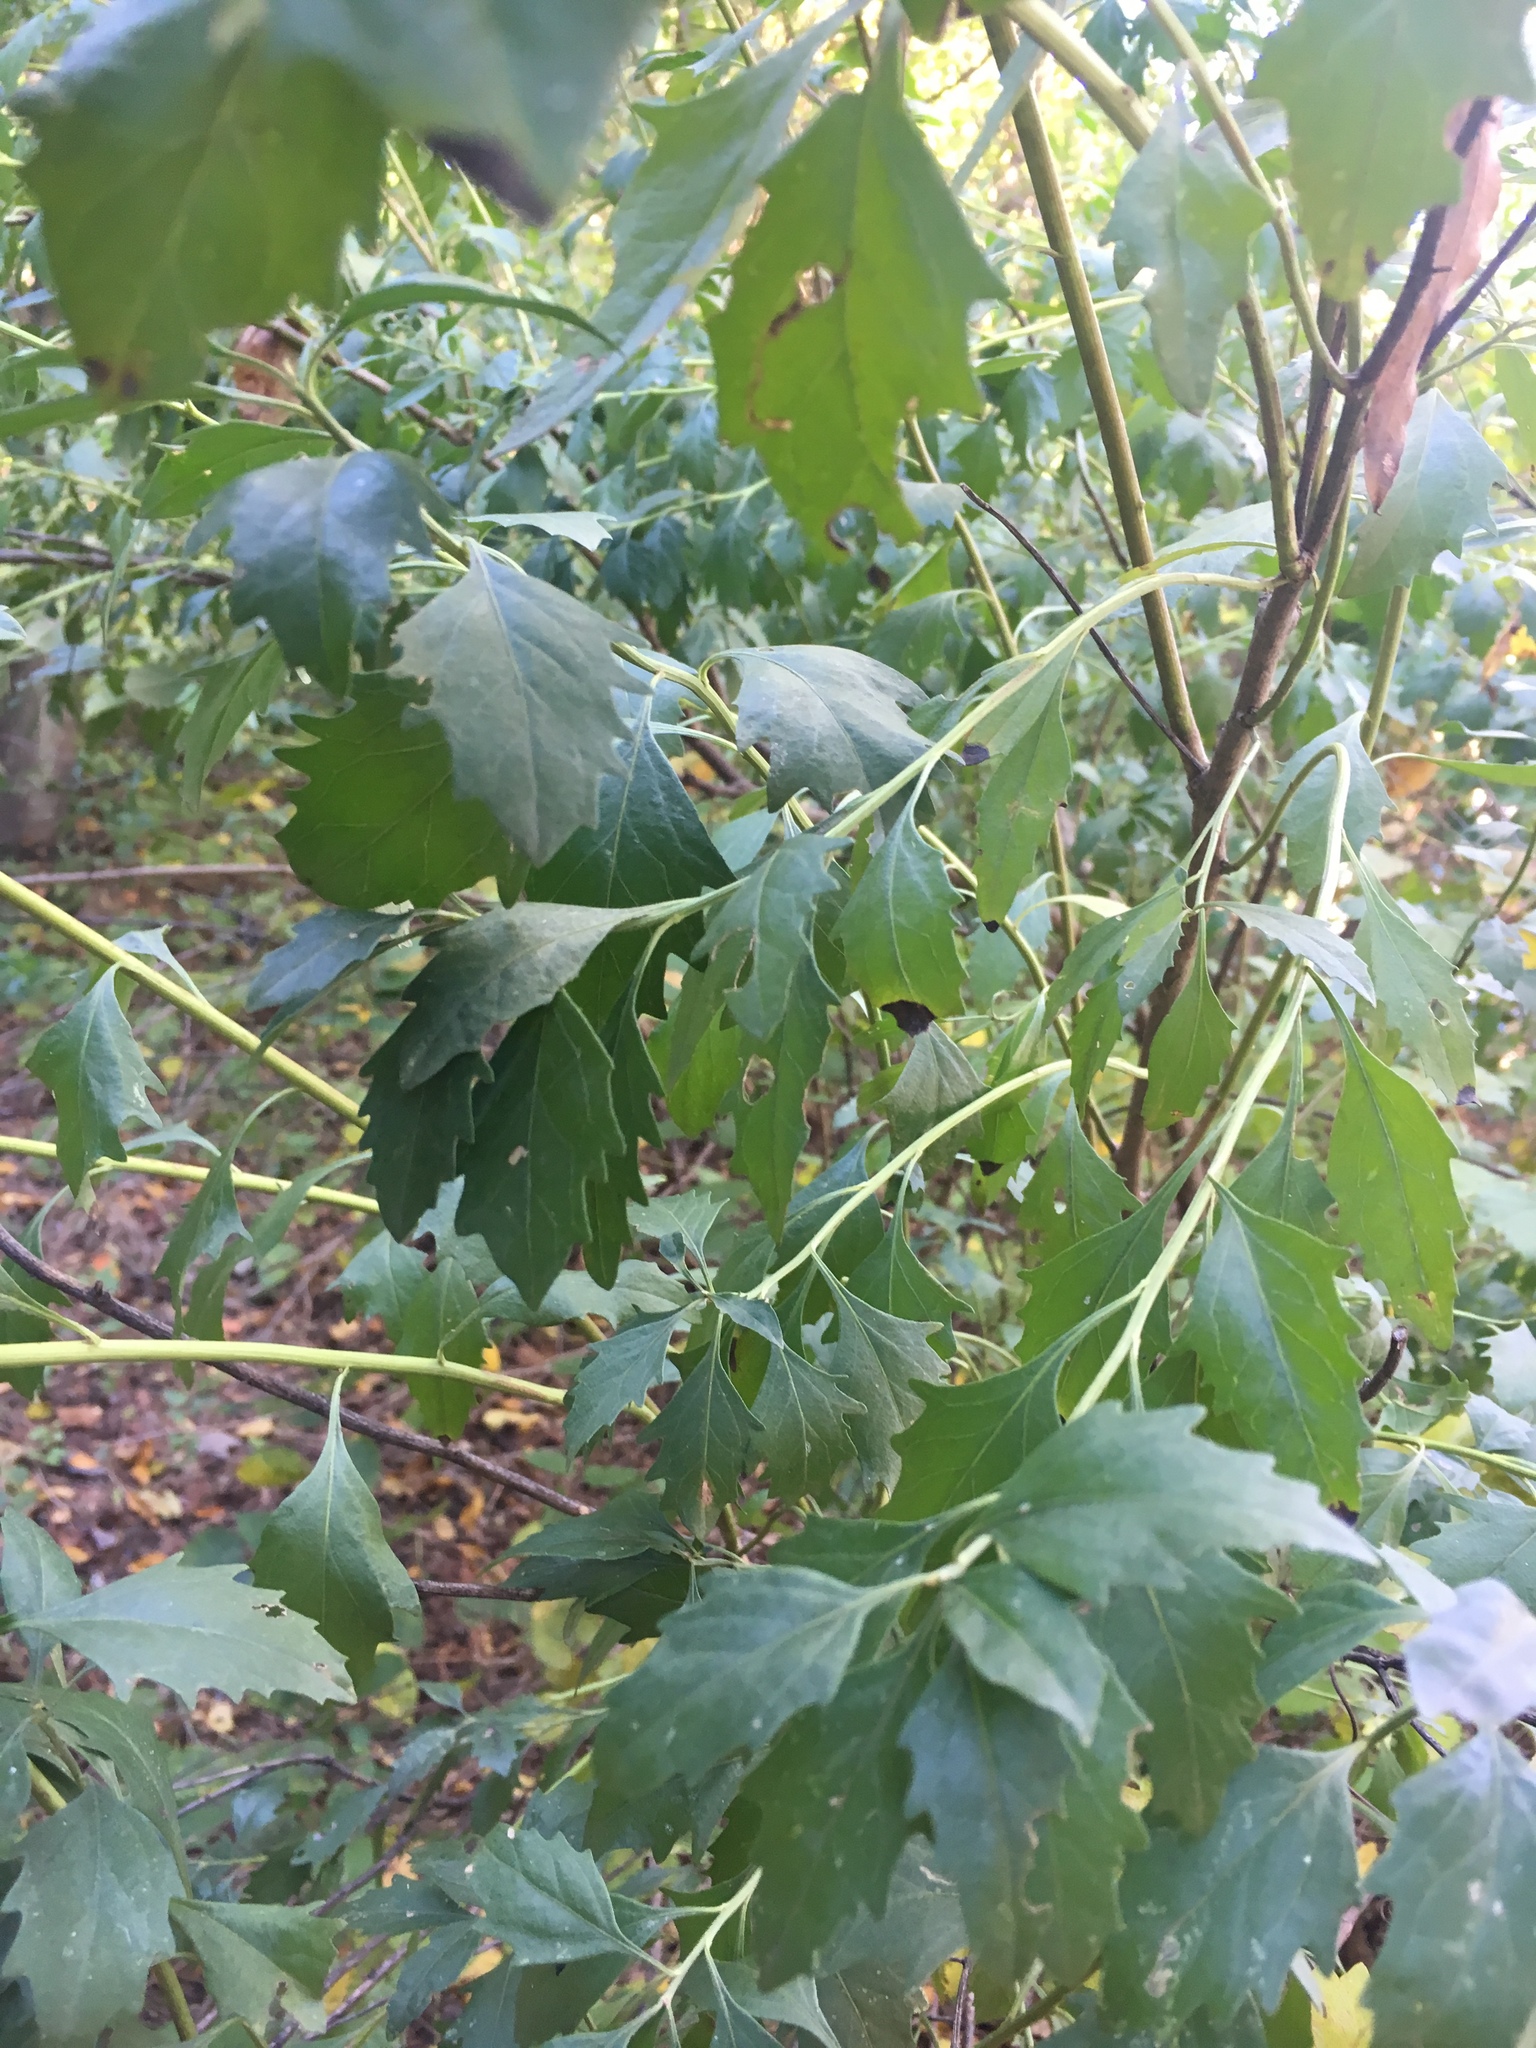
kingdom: Plantae
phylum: Tracheophyta
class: Magnoliopsida
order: Asterales
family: Asteraceae
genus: Baccharis
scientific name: Baccharis halimifolia
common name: Eastern baccharis
